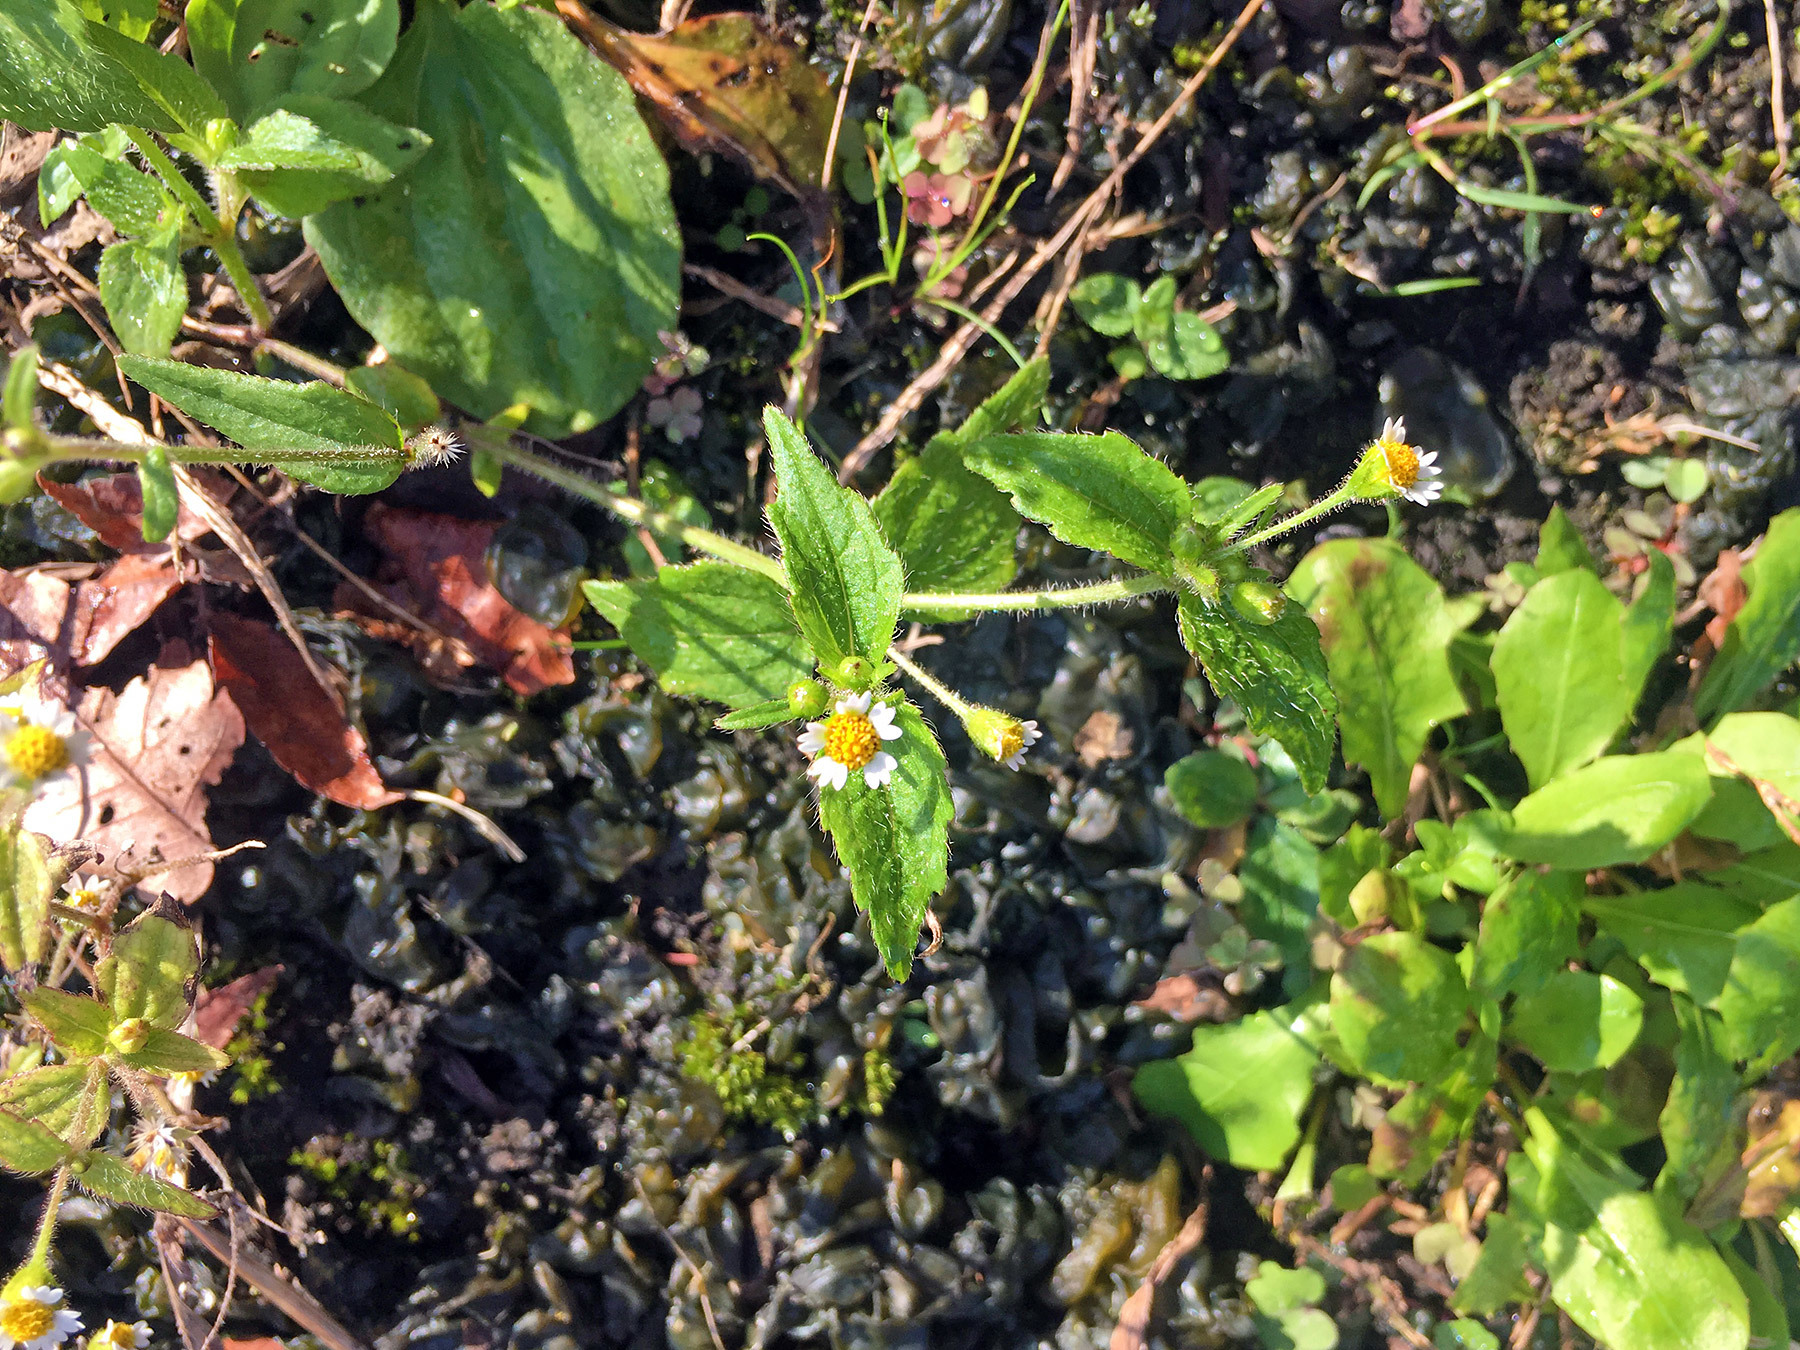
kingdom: Plantae
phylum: Tracheophyta
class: Magnoliopsida
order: Asterales
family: Asteraceae
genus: Galinsoga
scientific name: Galinsoga quadriradiata
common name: Shaggy soldier
